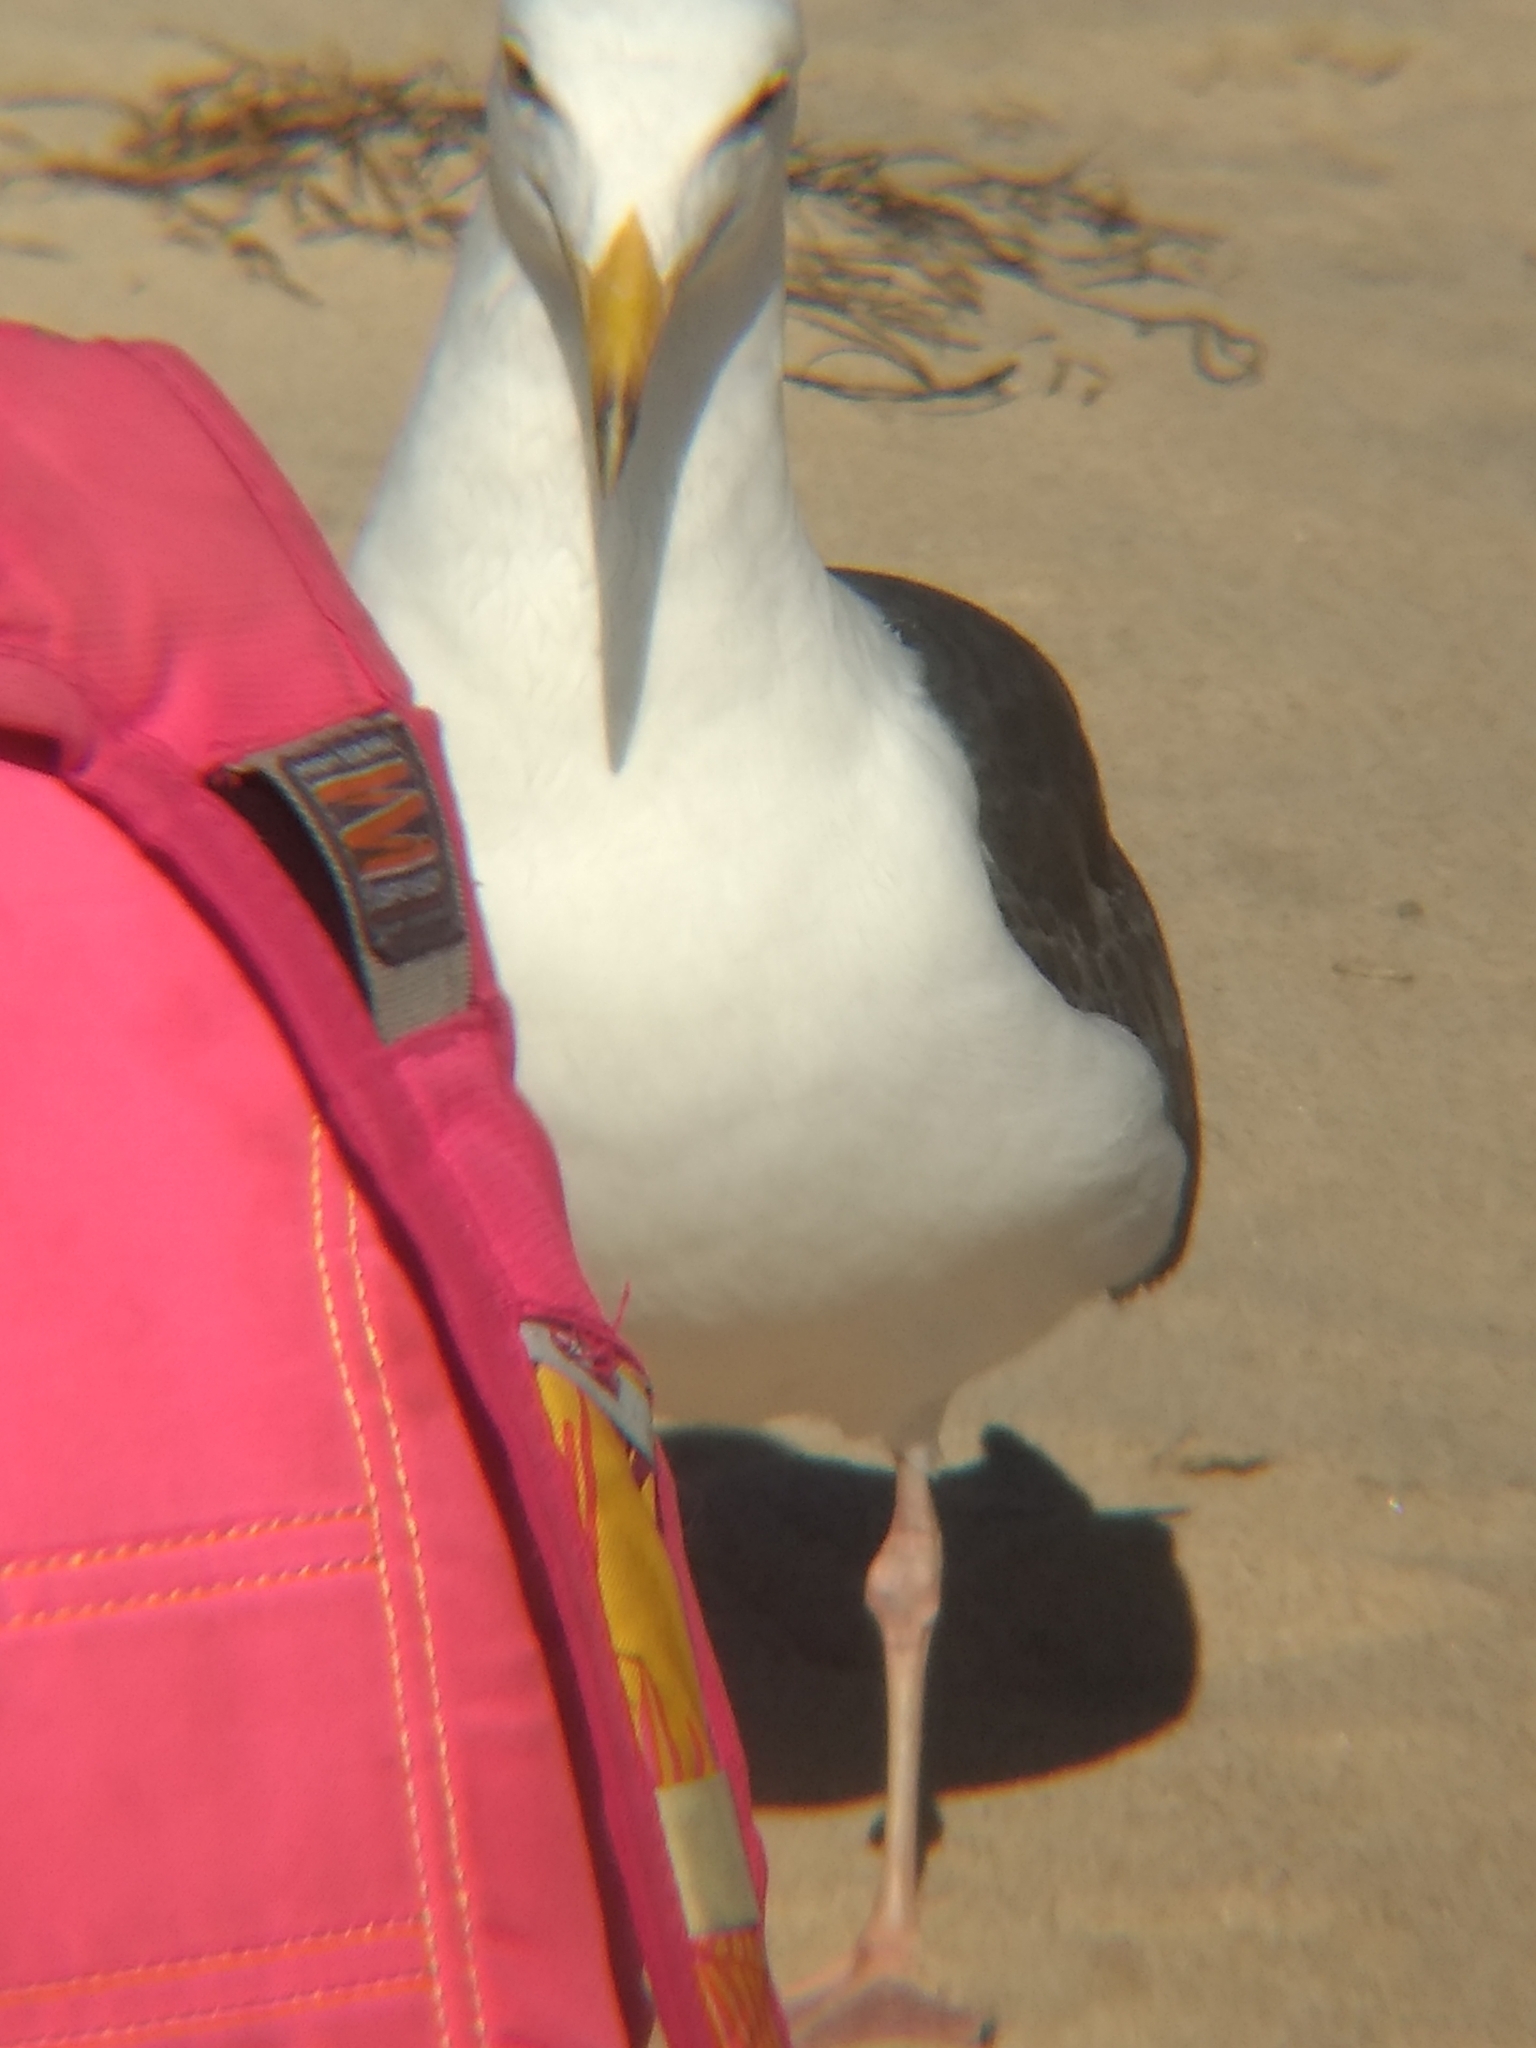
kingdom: Animalia
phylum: Chordata
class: Aves
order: Charadriiformes
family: Laridae
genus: Larus
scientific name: Larus occidentalis
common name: Western gull
